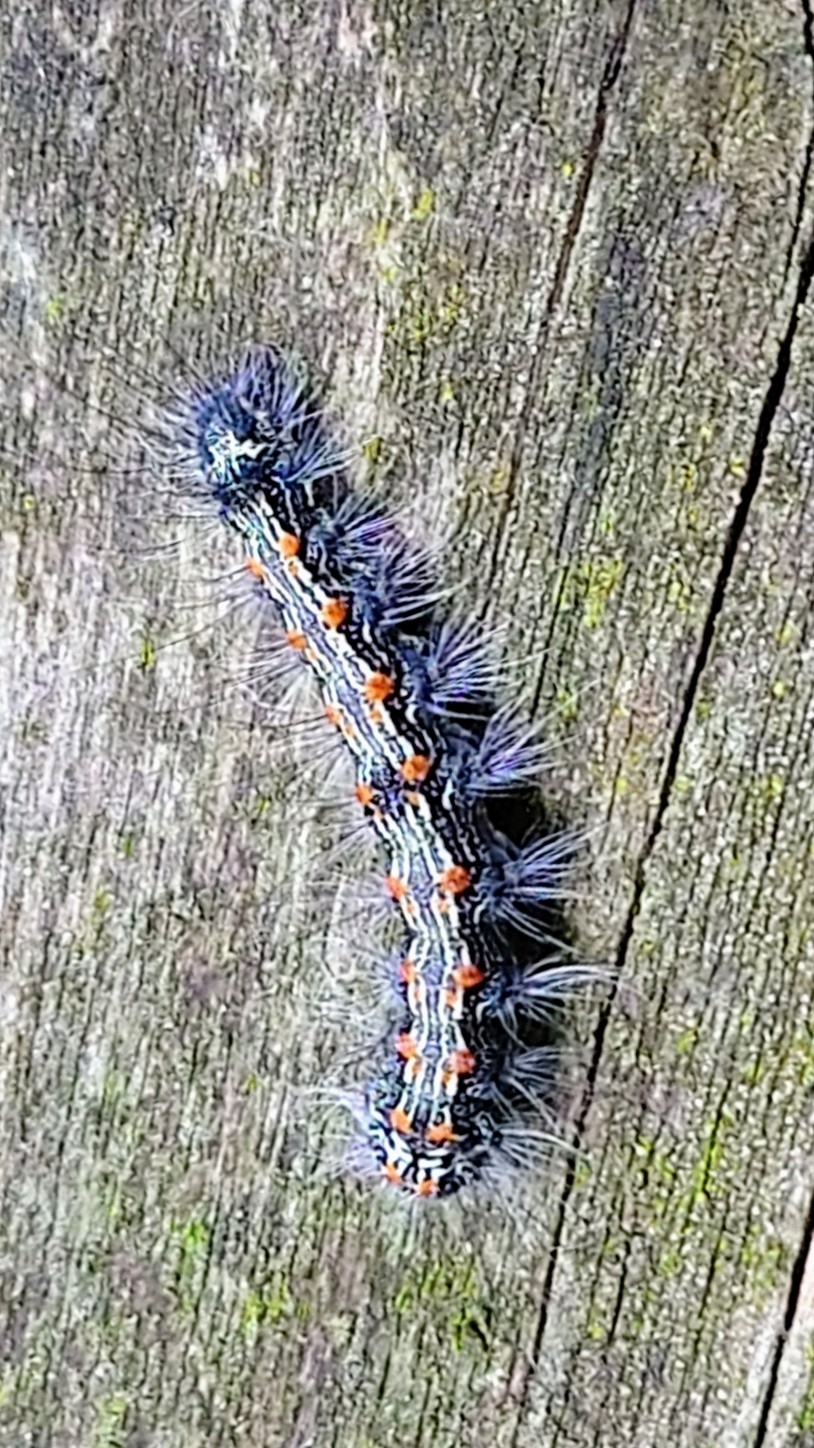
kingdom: Animalia
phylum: Arthropoda
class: Insecta
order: Lepidoptera
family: Erebidae
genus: Lithosia
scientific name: Lithosia quadra
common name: Four-spotted footman
